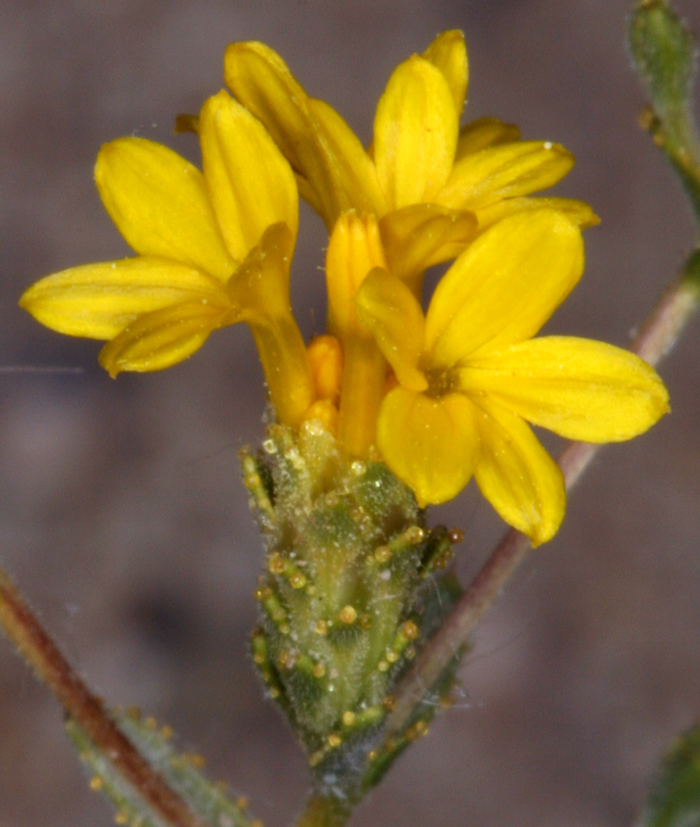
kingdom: Plantae
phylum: Tracheophyta
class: Magnoliopsida
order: Asterales
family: Asteraceae
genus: Lessingia
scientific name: Lessingia glandulifera
